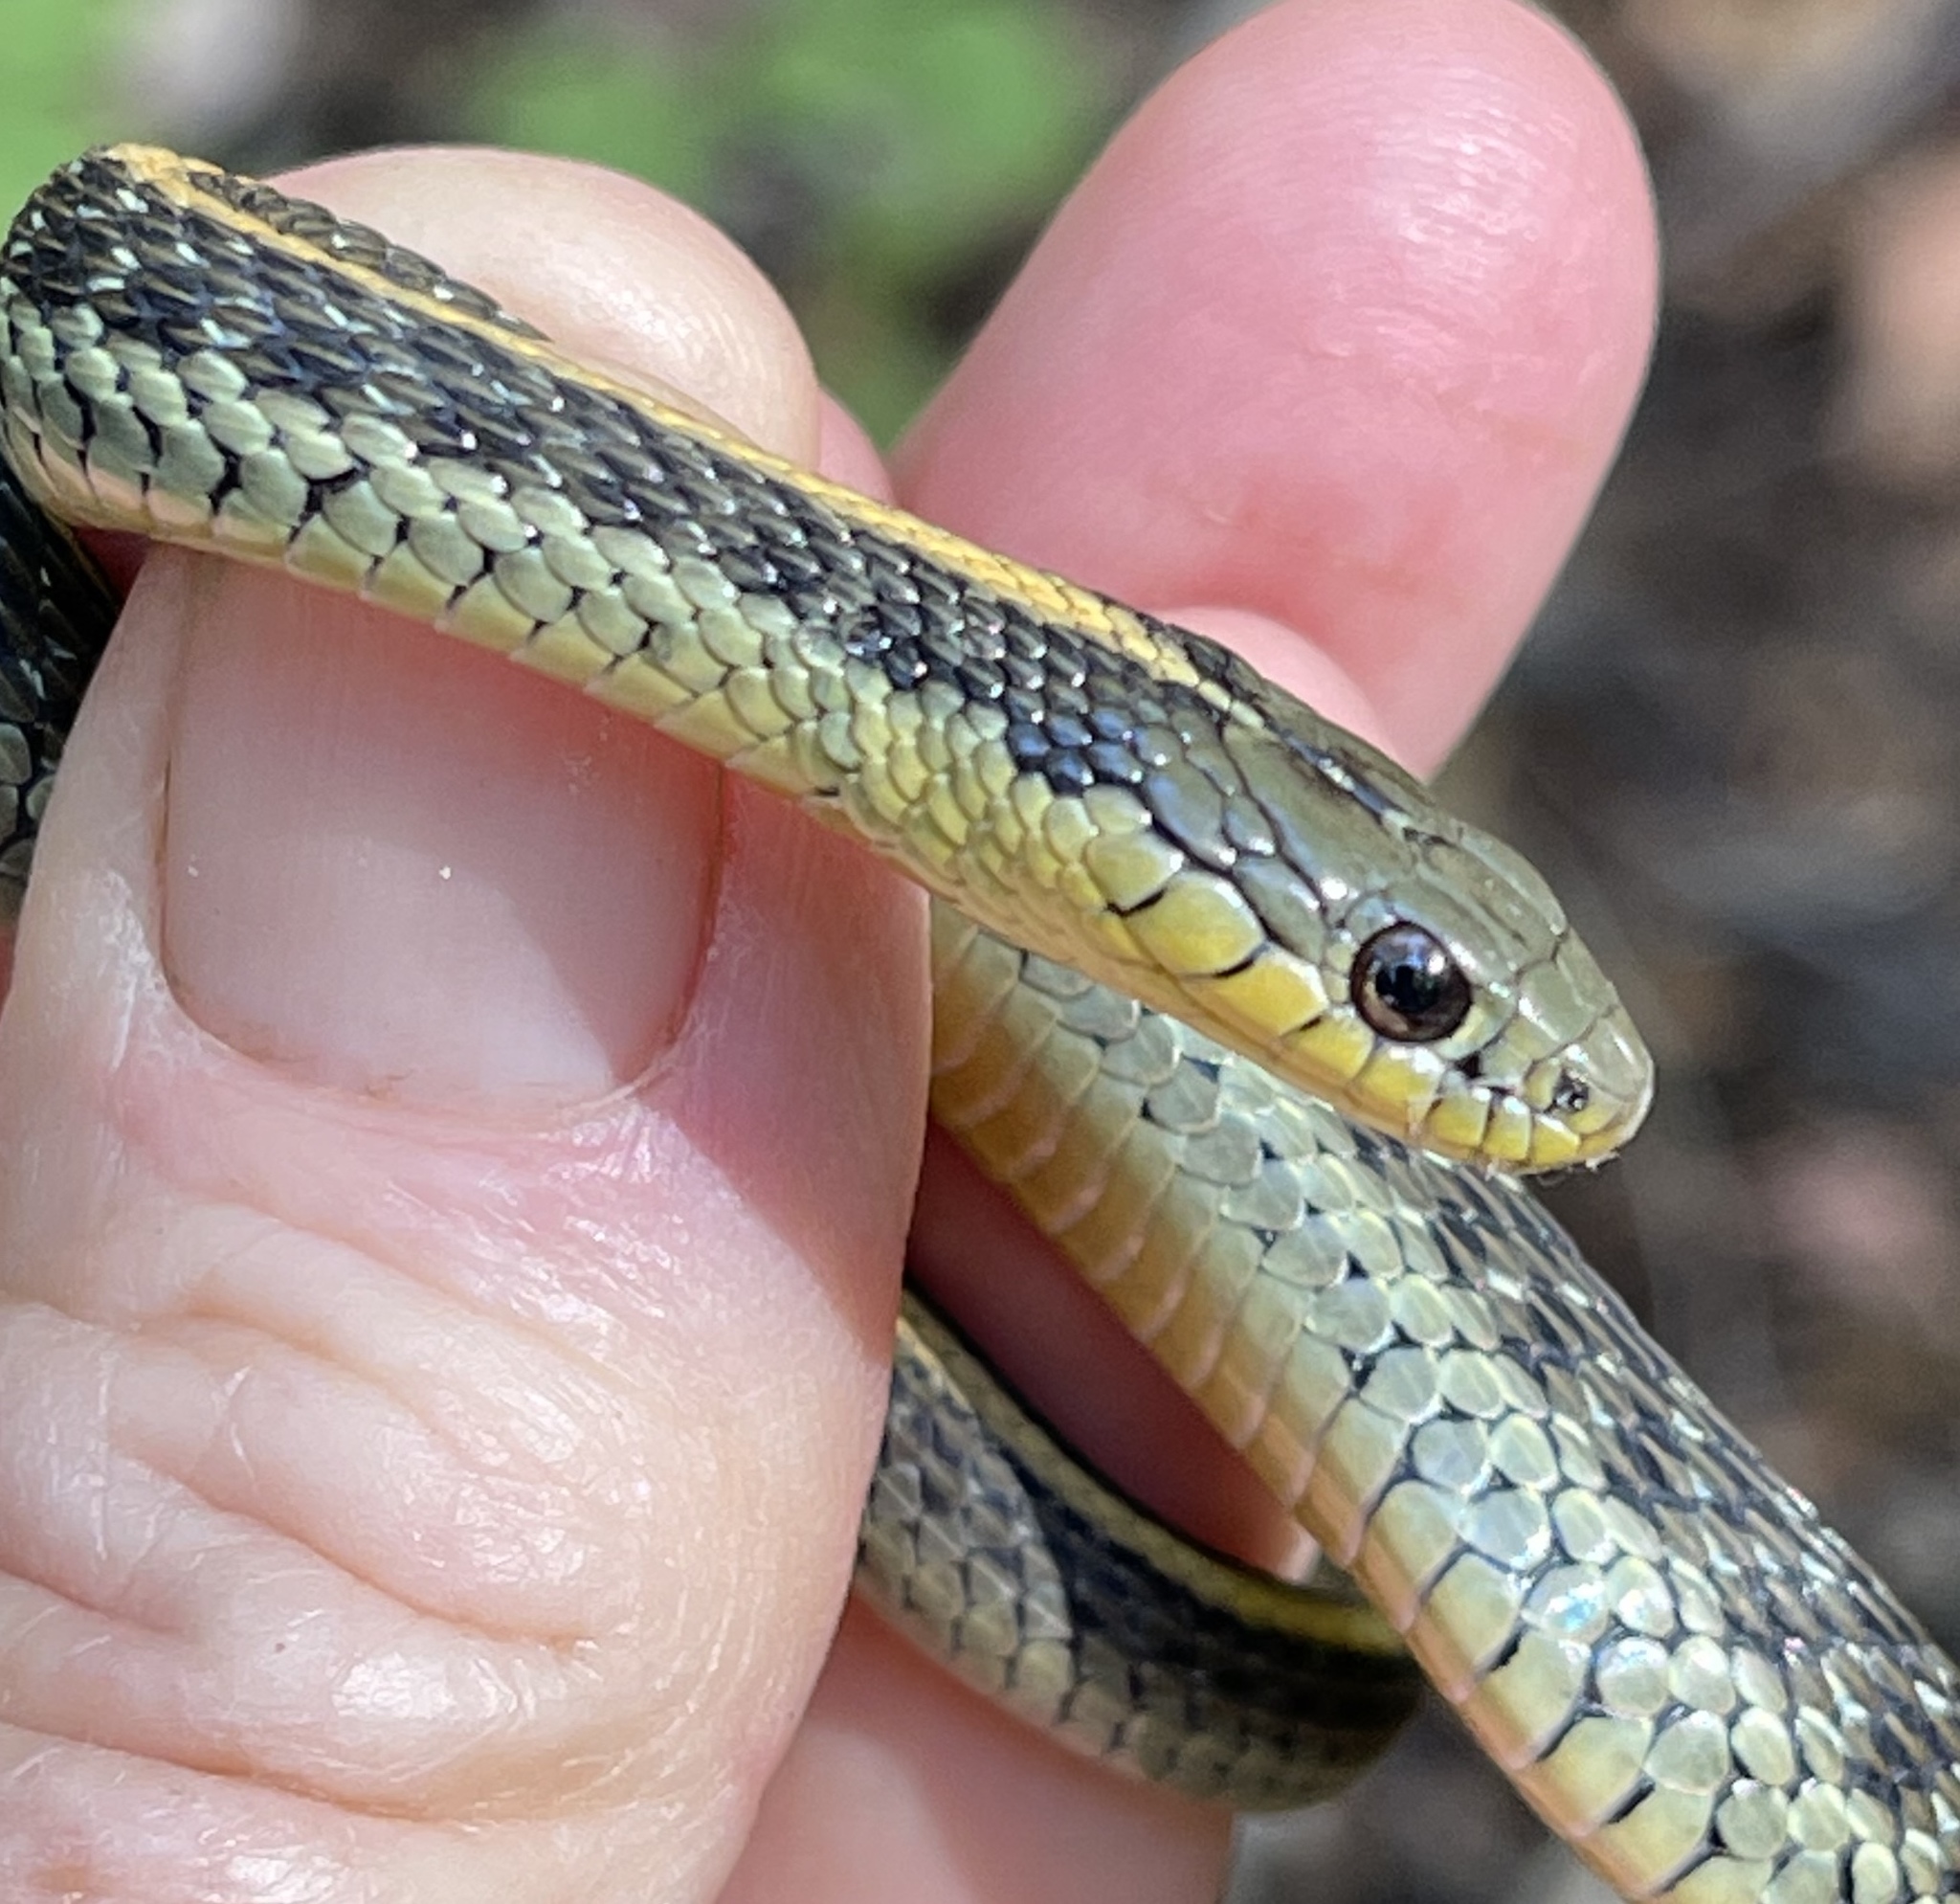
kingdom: Animalia
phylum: Chordata
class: Squamata
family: Colubridae
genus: Thamnophis
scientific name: Thamnophis atratus
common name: Pacific coast aquatic garter snake
